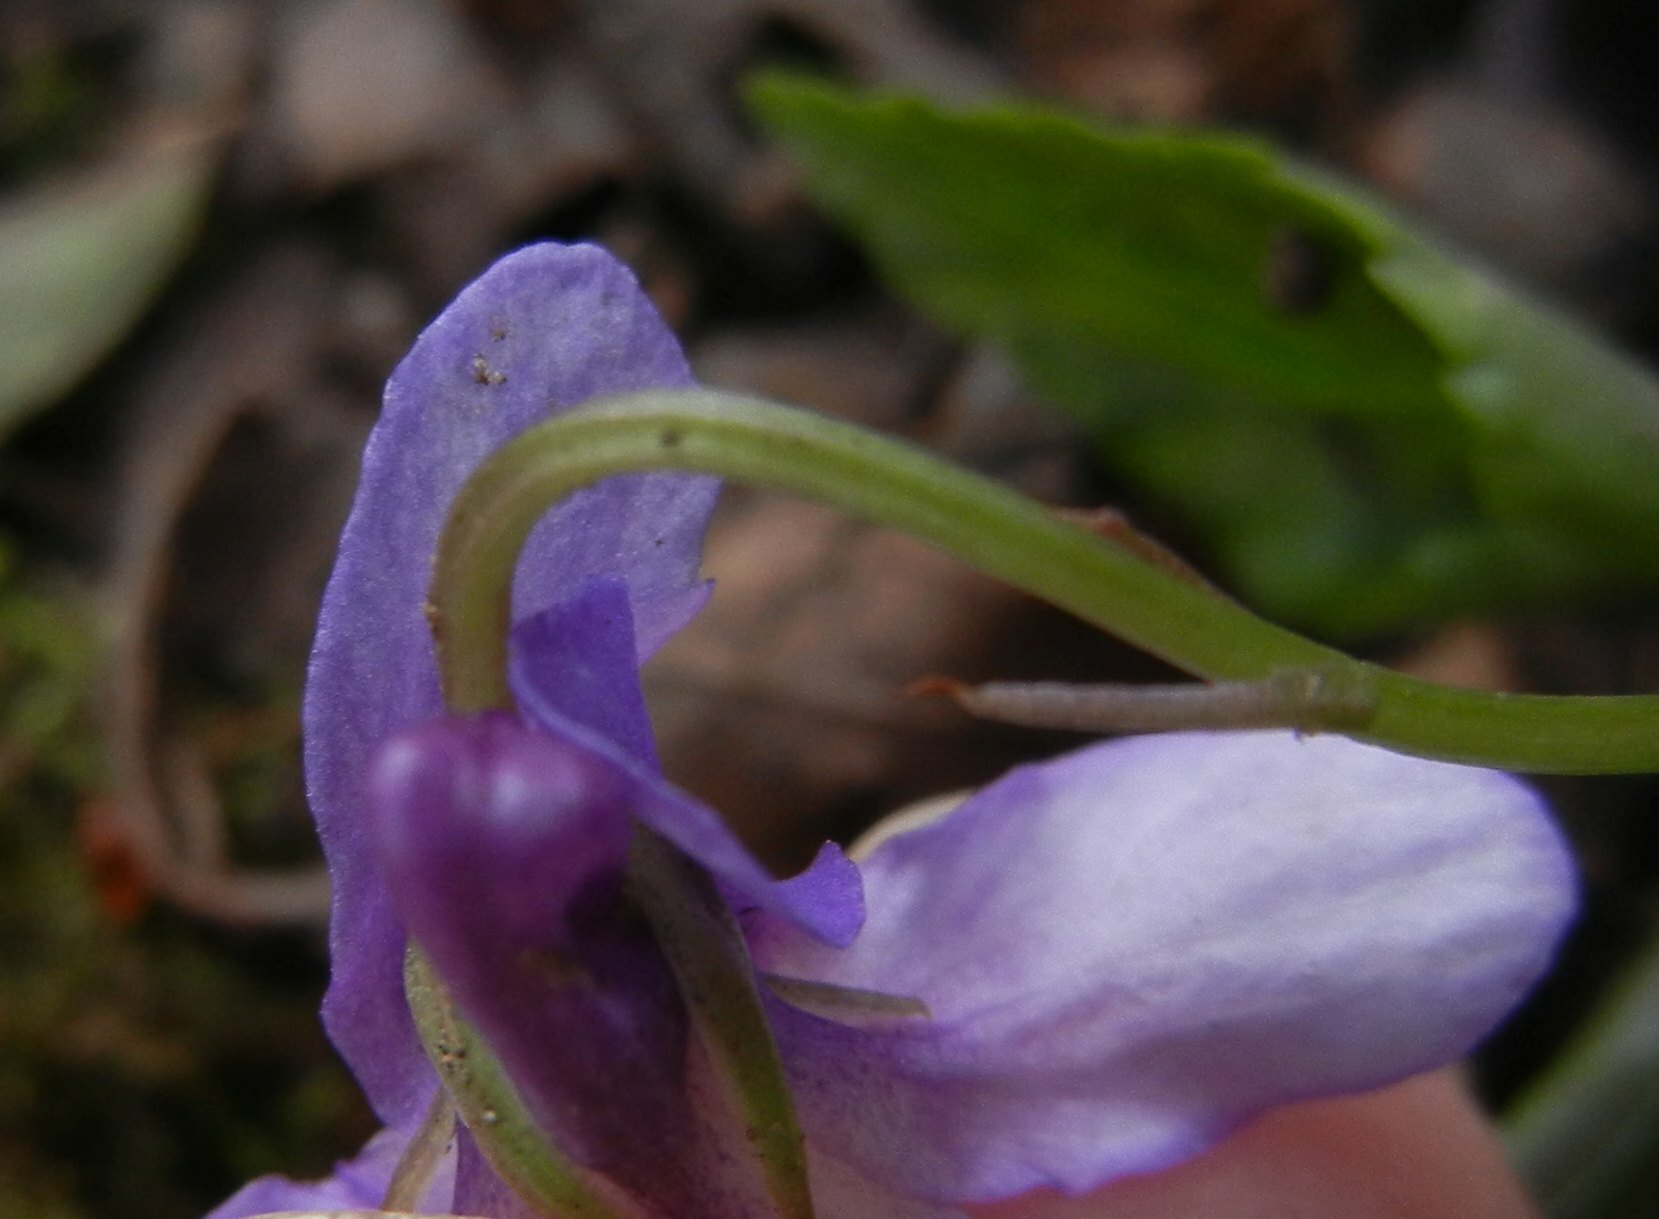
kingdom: Plantae
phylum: Tracheophyta
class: Magnoliopsida
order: Malpighiales
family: Violaceae
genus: Viola
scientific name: Viola reichenbachiana
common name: Early dog-violet
